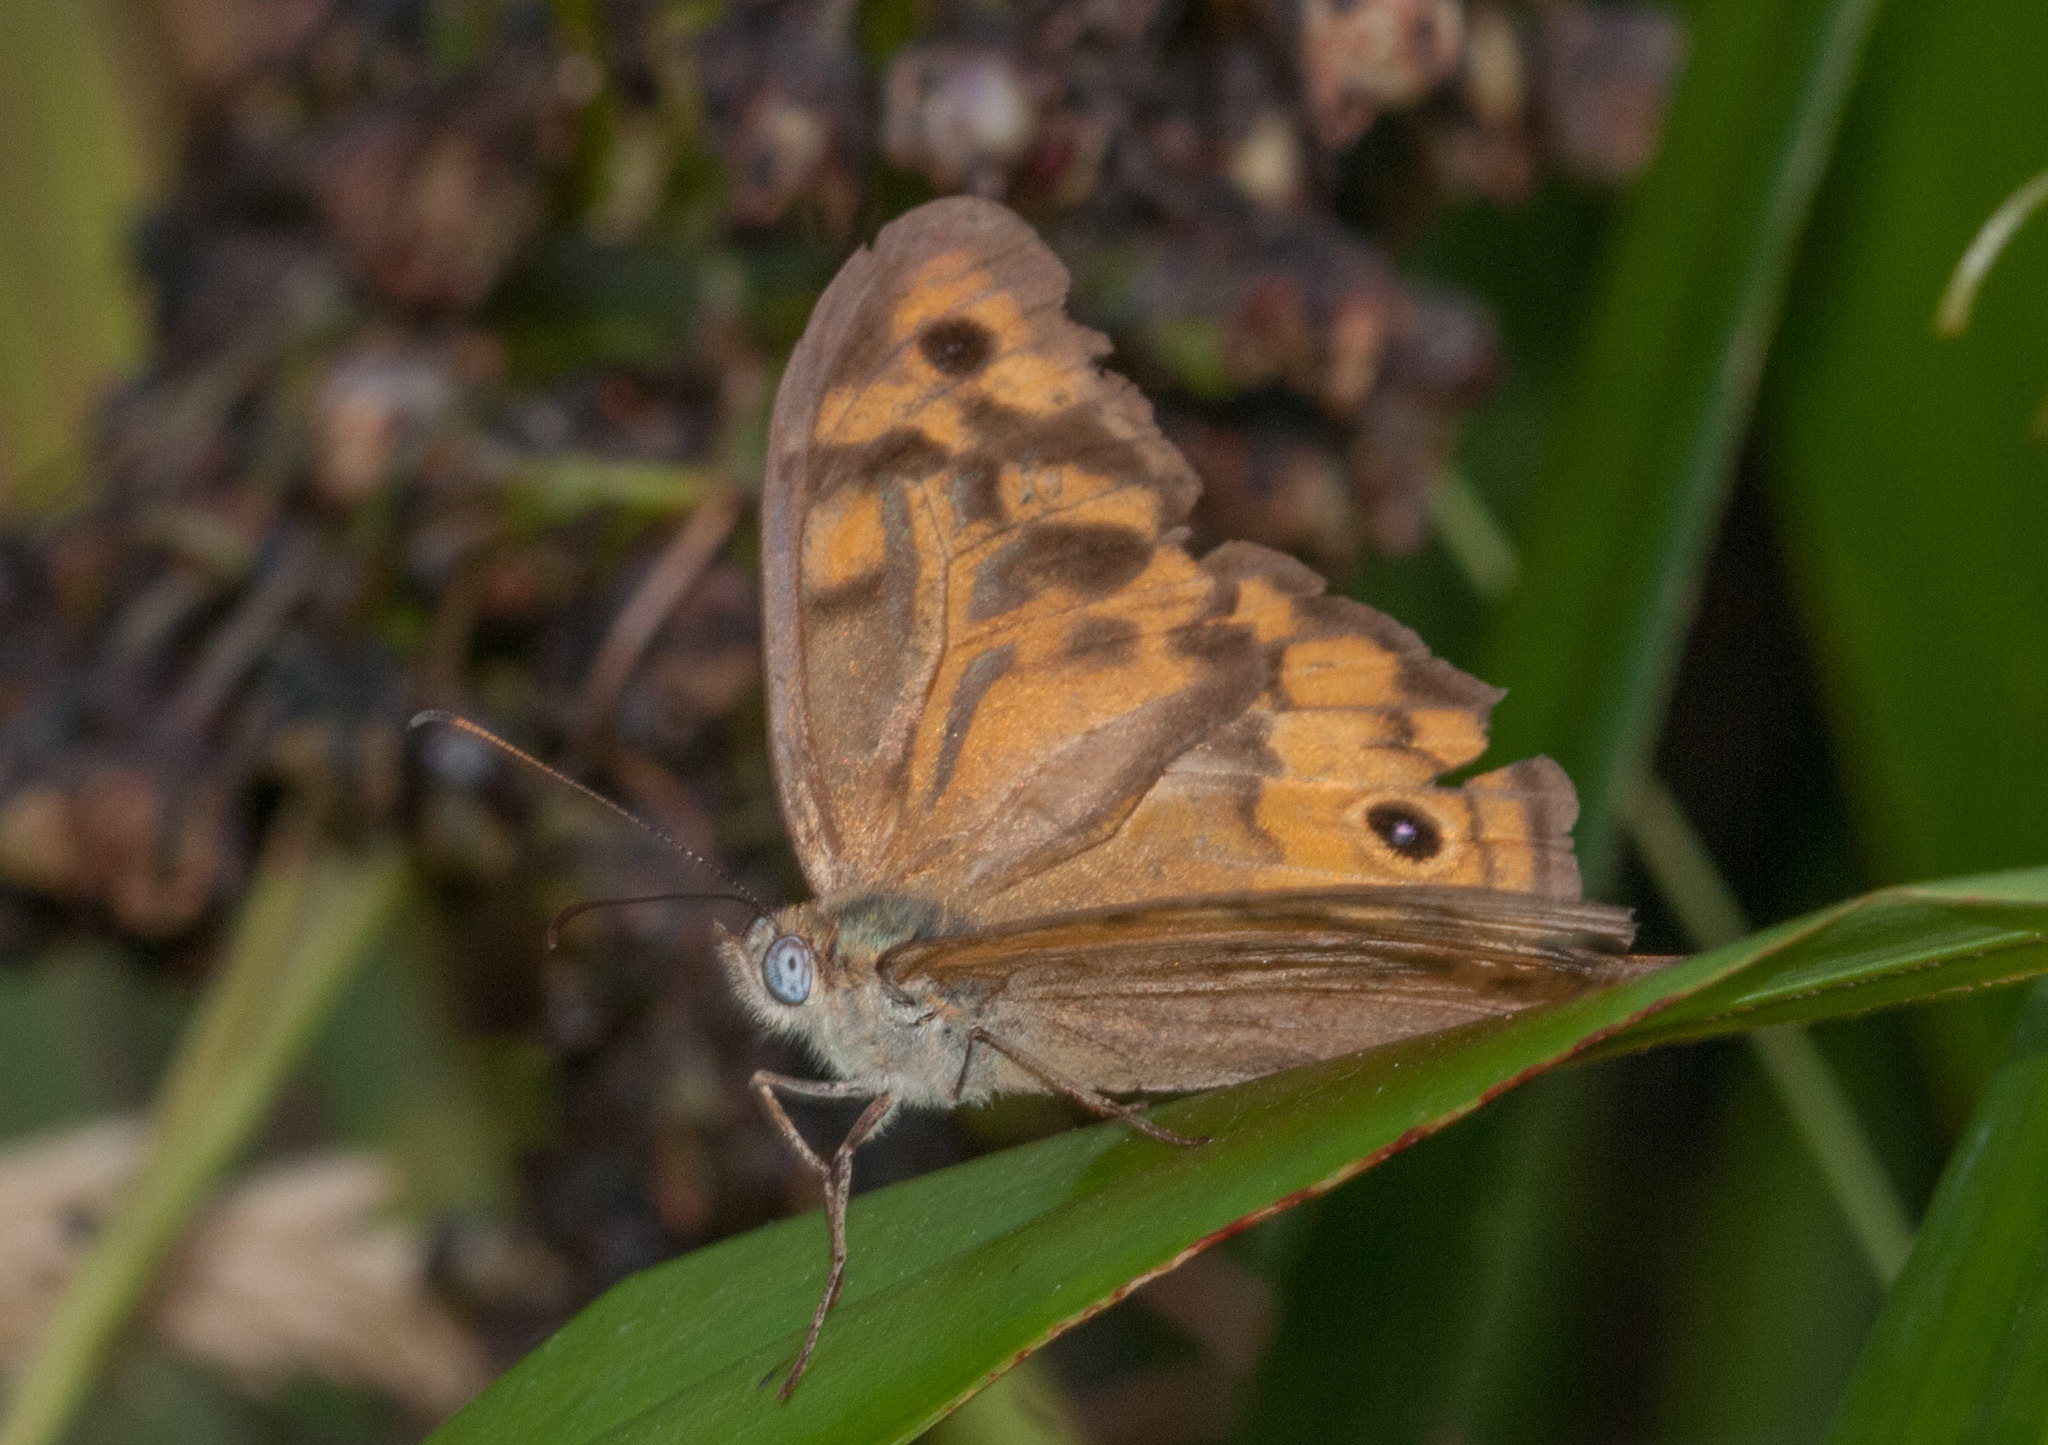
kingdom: Animalia
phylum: Arthropoda
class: Insecta
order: Lepidoptera
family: Nymphalidae
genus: Heteronympha
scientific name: Heteronympha merope
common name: Common brown
